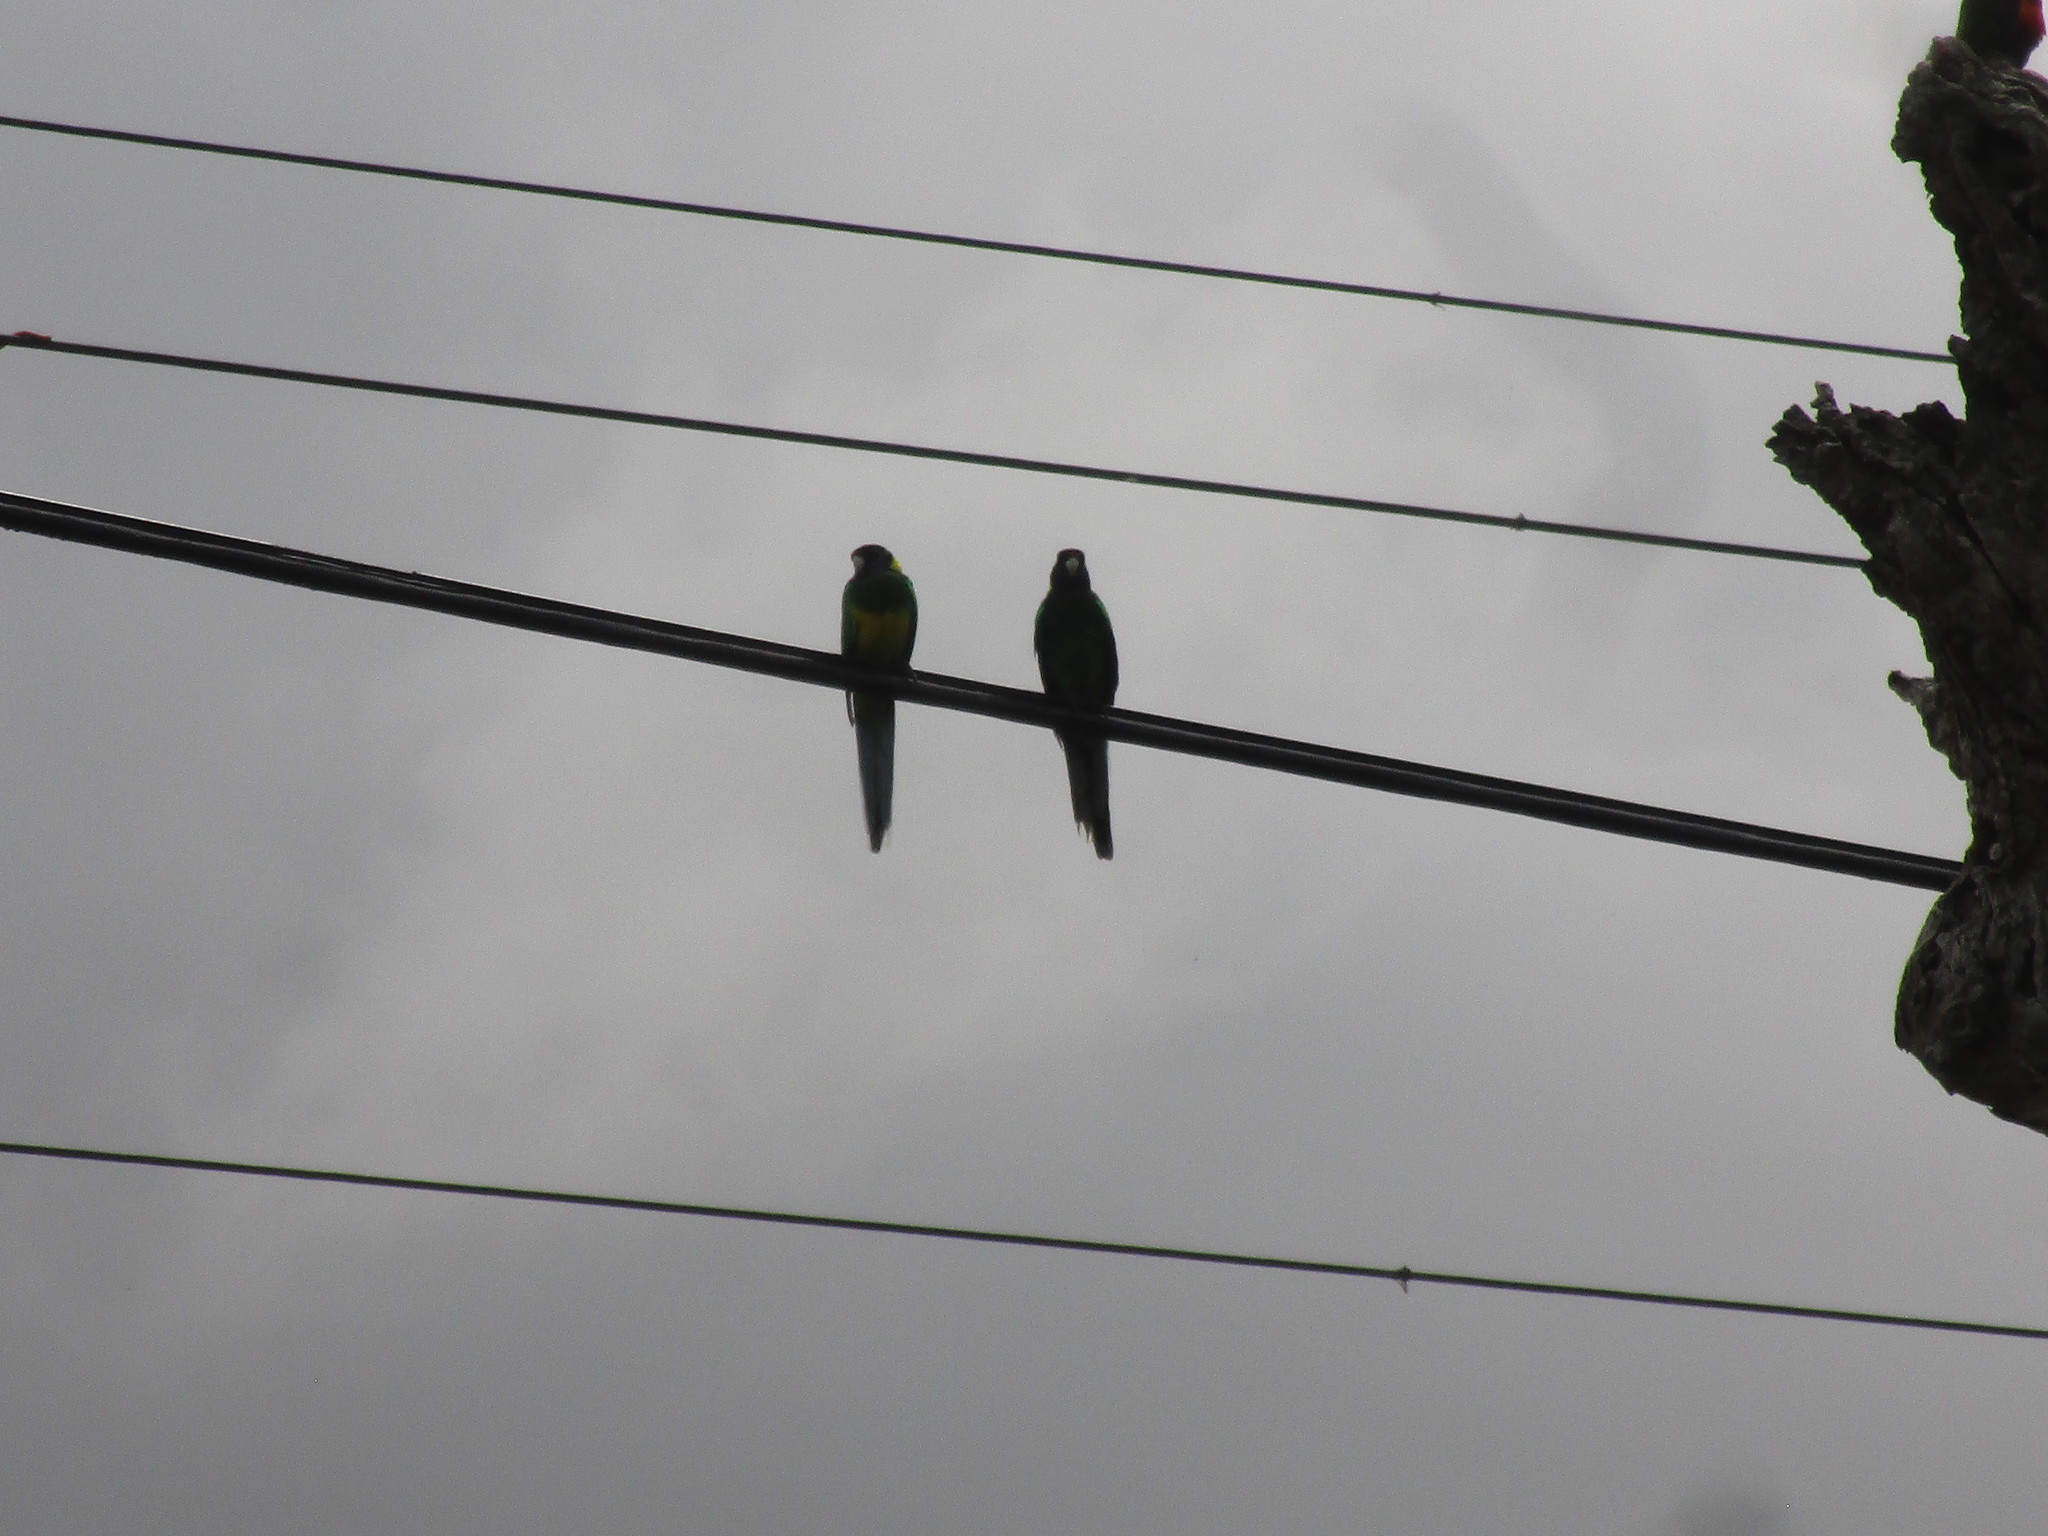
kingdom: Animalia
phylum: Chordata
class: Aves
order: Psittaciformes
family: Psittacidae
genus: Barnardius
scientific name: Barnardius zonarius
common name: Australian ringneck
